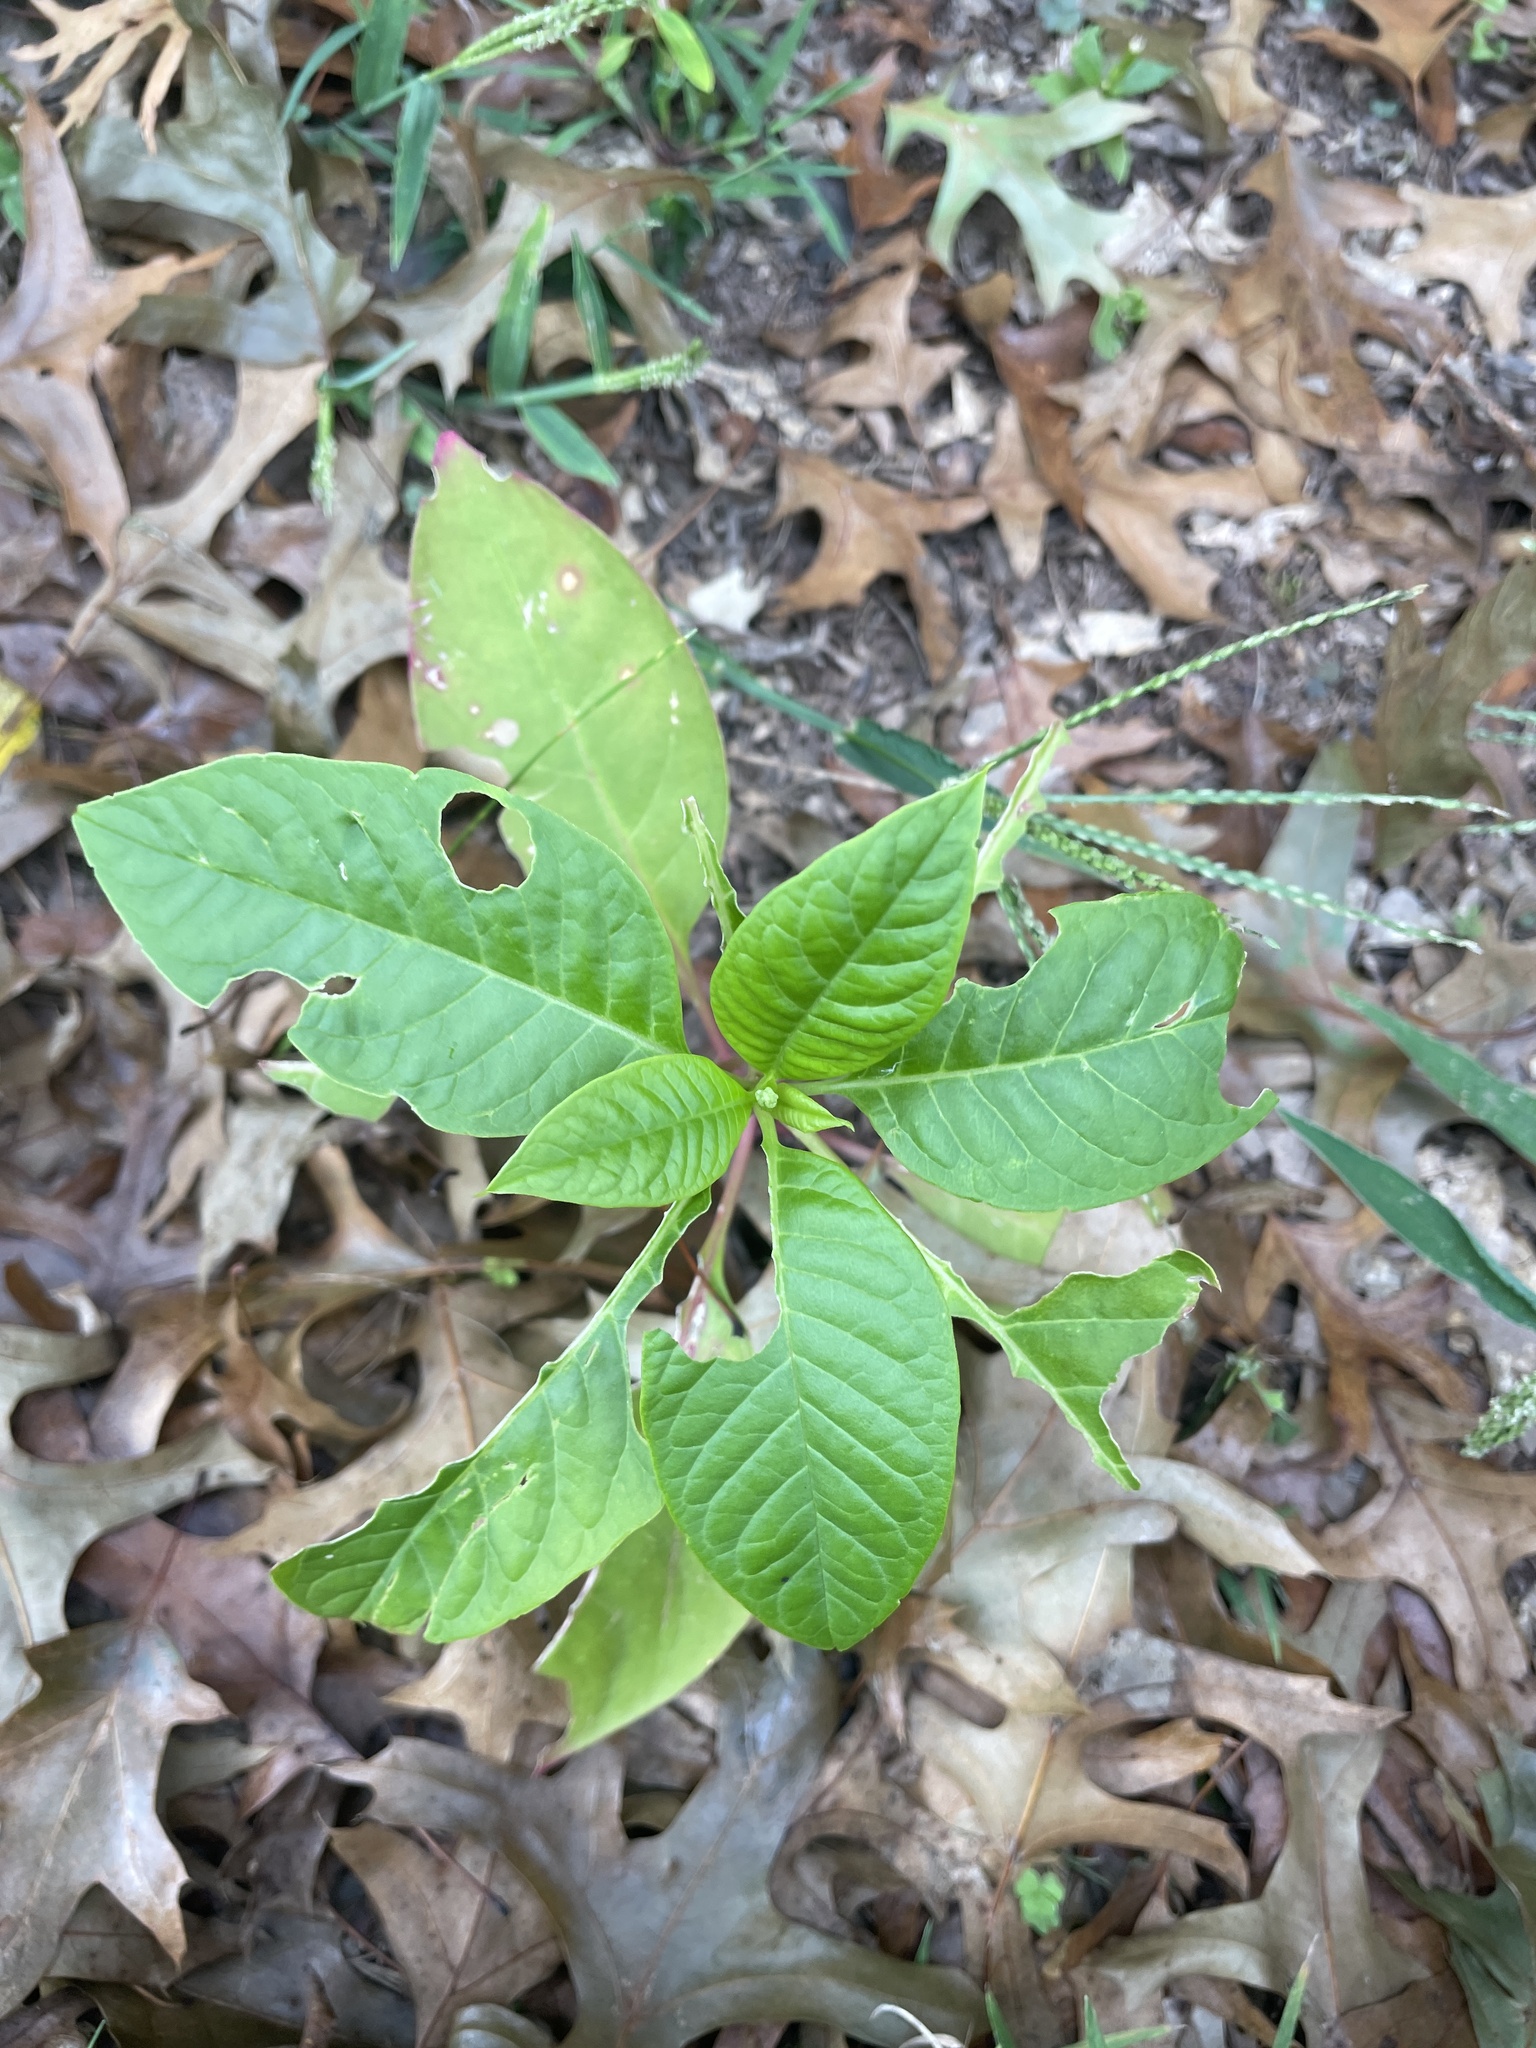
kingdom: Plantae
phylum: Tracheophyta
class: Magnoliopsida
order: Caryophyllales
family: Phytolaccaceae
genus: Phytolacca
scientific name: Phytolacca americana
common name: American pokeweed
